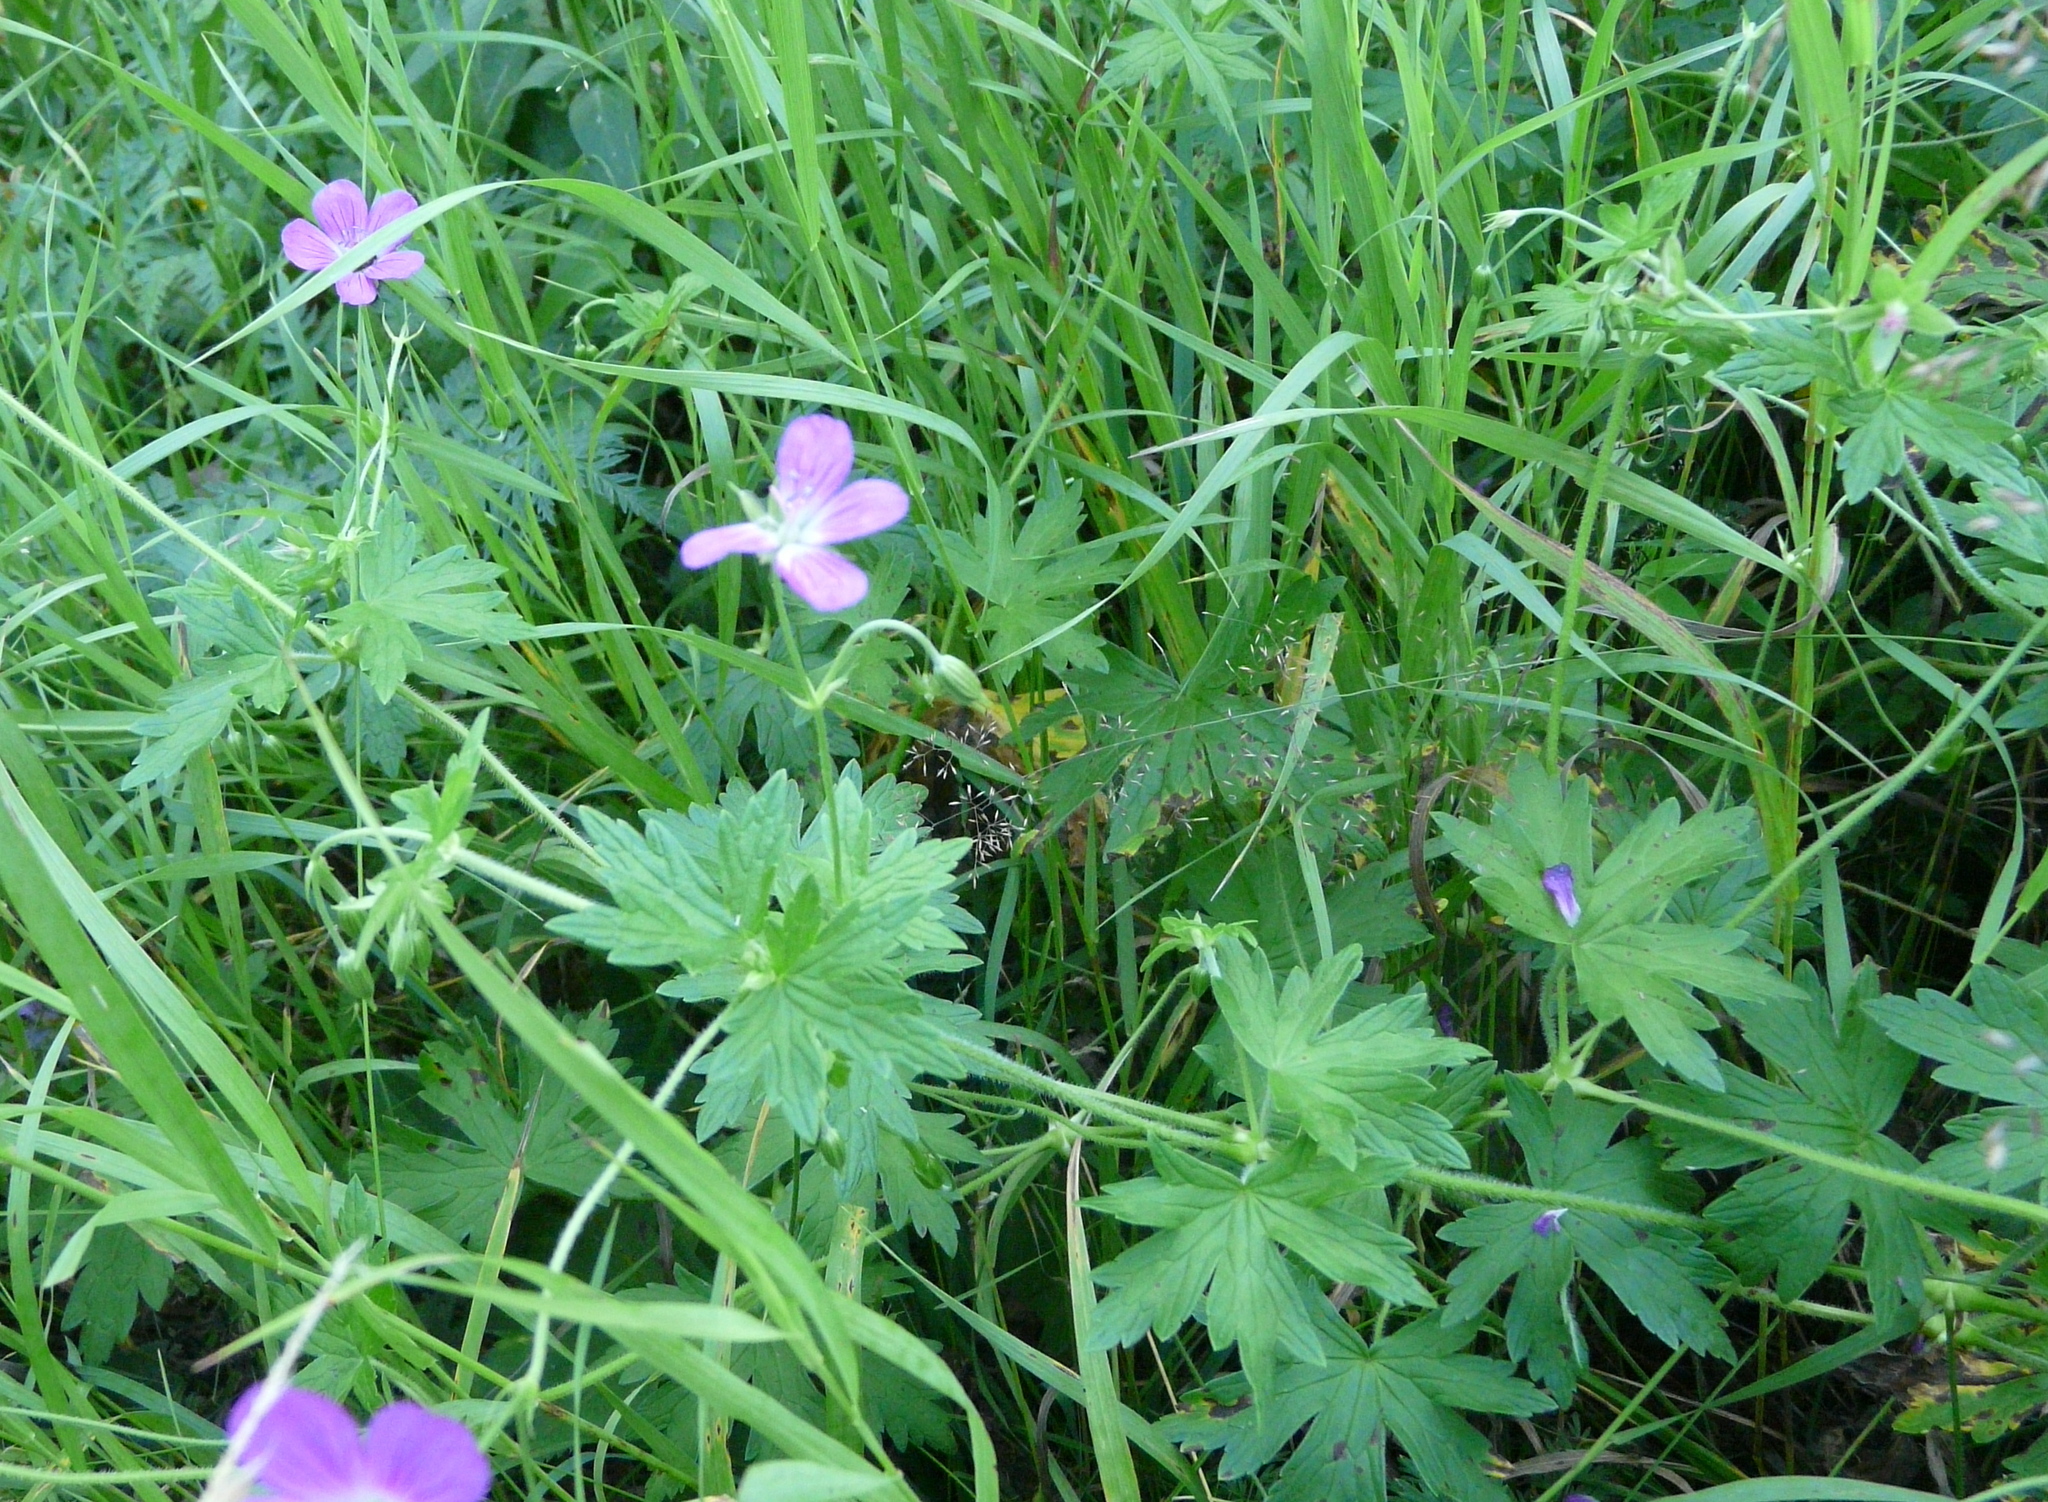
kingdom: Plantae
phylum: Tracheophyta
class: Magnoliopsida
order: Geraniales
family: Geraniaceae
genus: Geranium
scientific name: Geranium palustre
